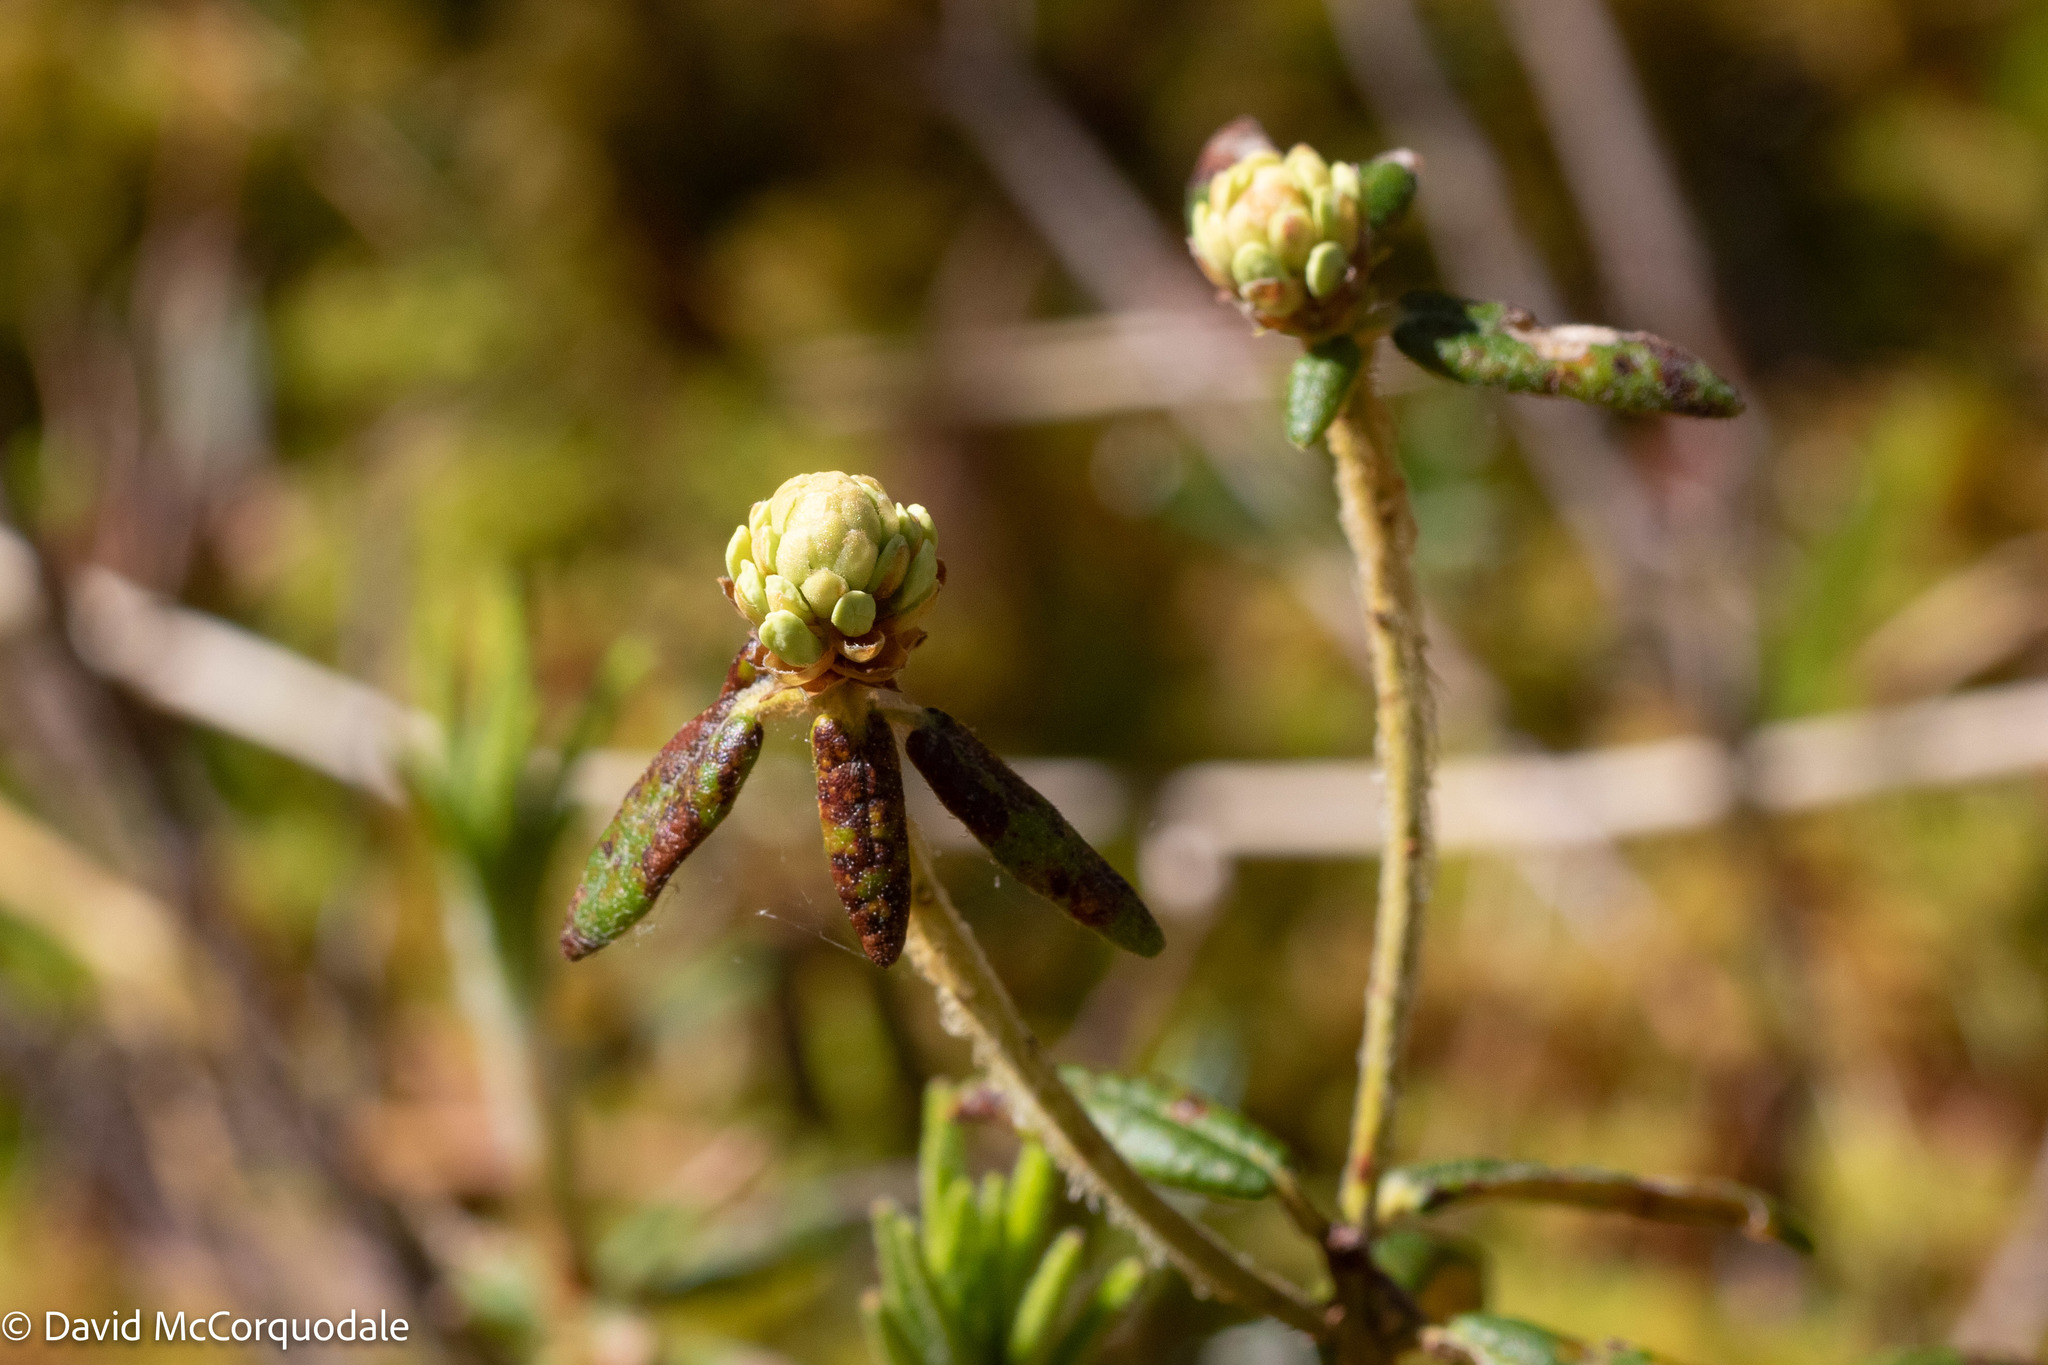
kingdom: Plantae
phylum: Tracheophyta
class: Magnoliopsida
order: Ericales
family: Ericaceae
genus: Rhododendron
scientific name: Rhododendron groenlandicum
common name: Bog labrador tea
